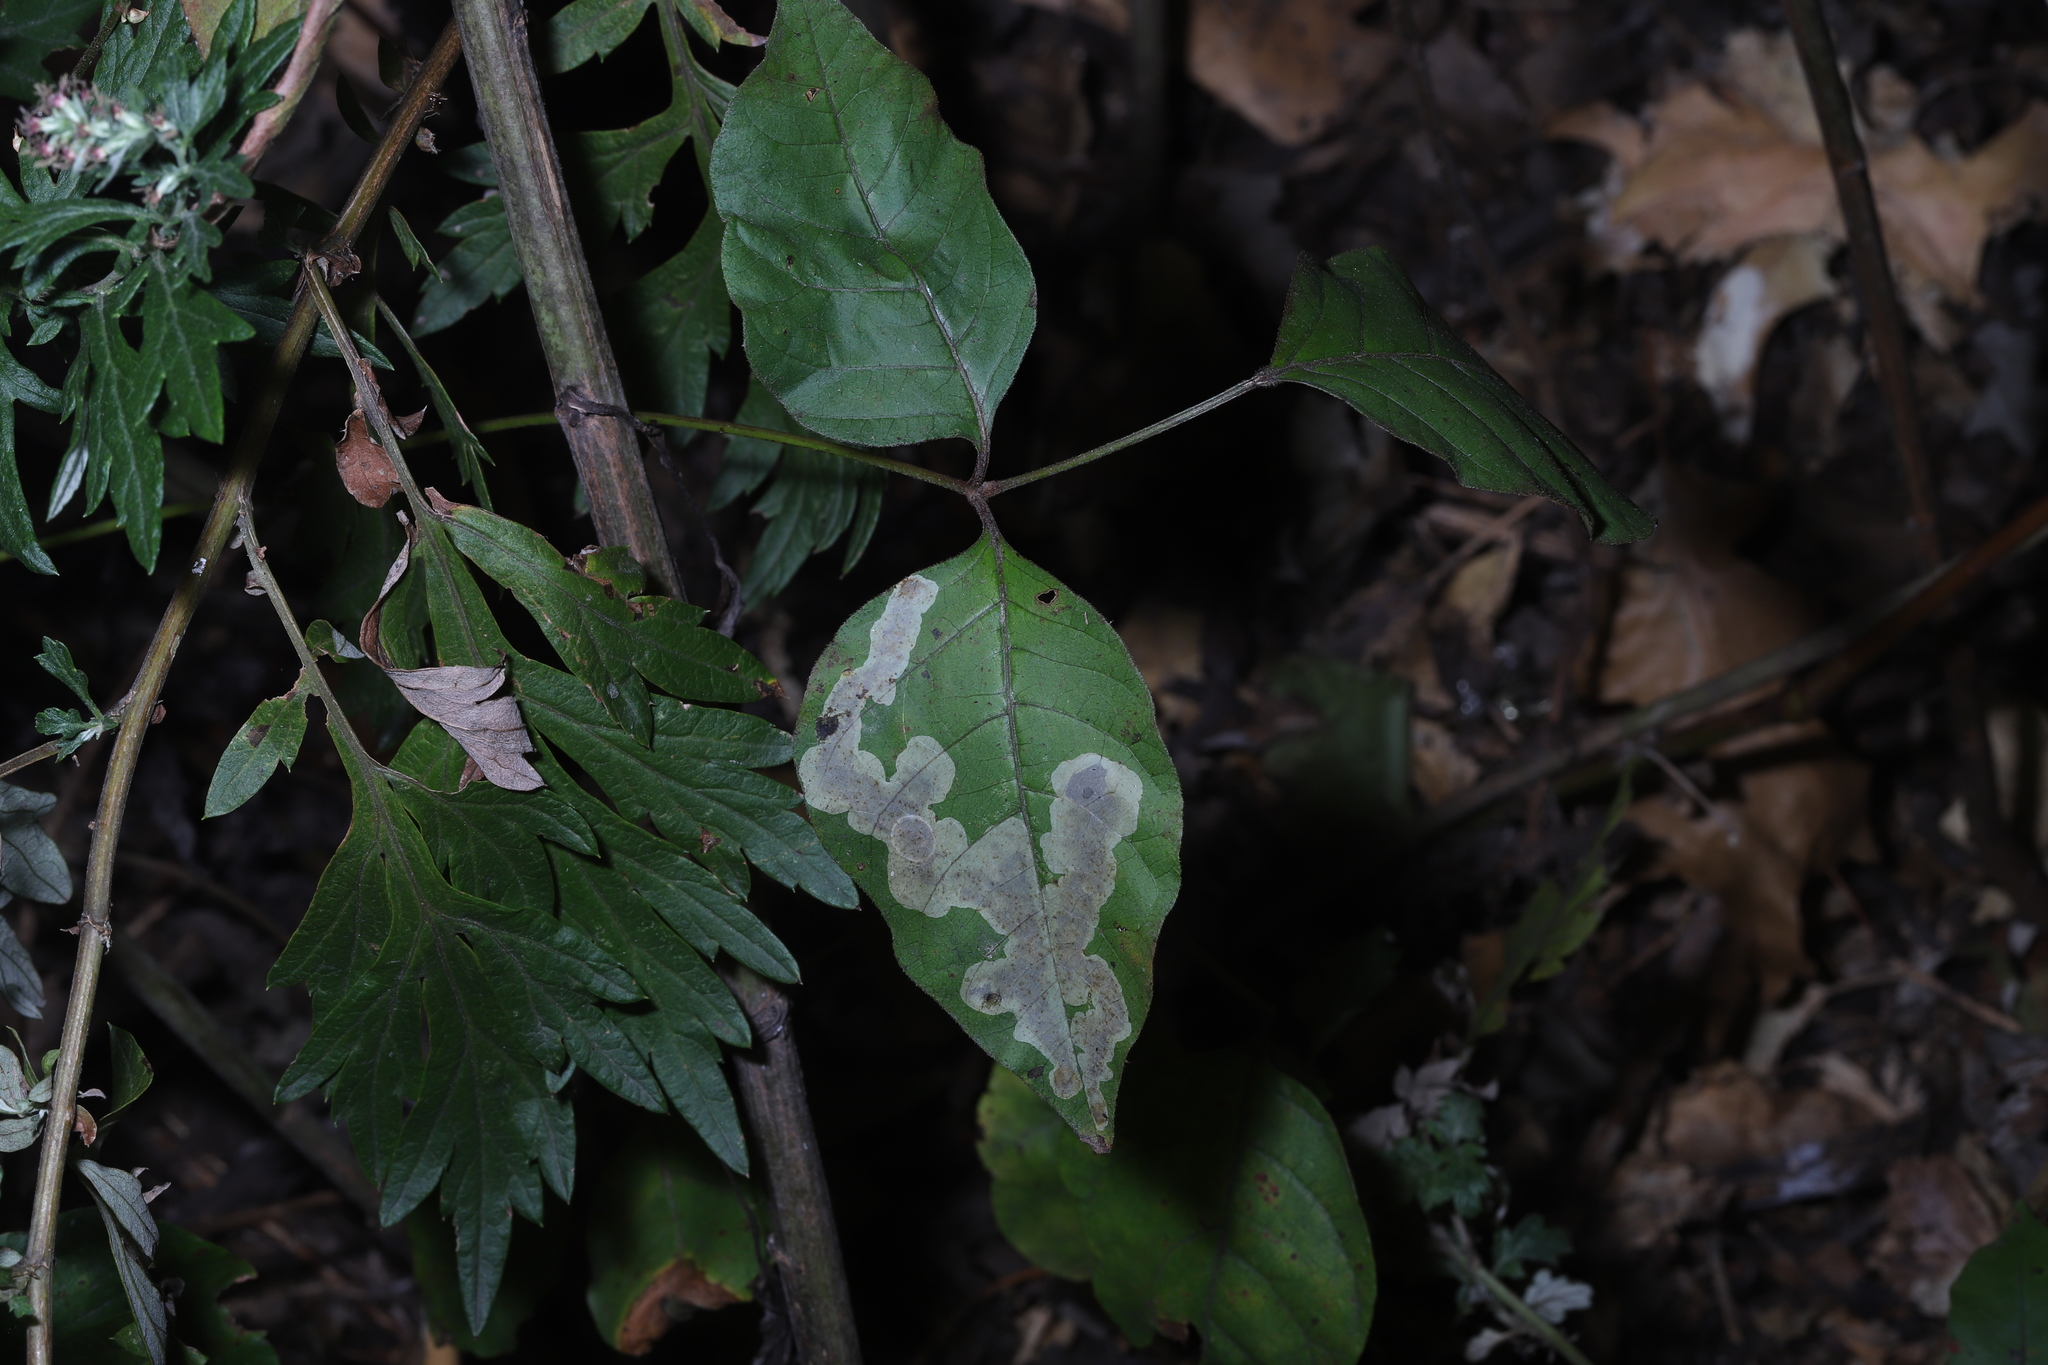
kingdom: Animalia
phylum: Arthropoda
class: Insecta
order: Lepidoptera
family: Gracillariidae
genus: Cameraria
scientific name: Cameraria guttifinitella
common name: Poison ivy leaf-miner moth
